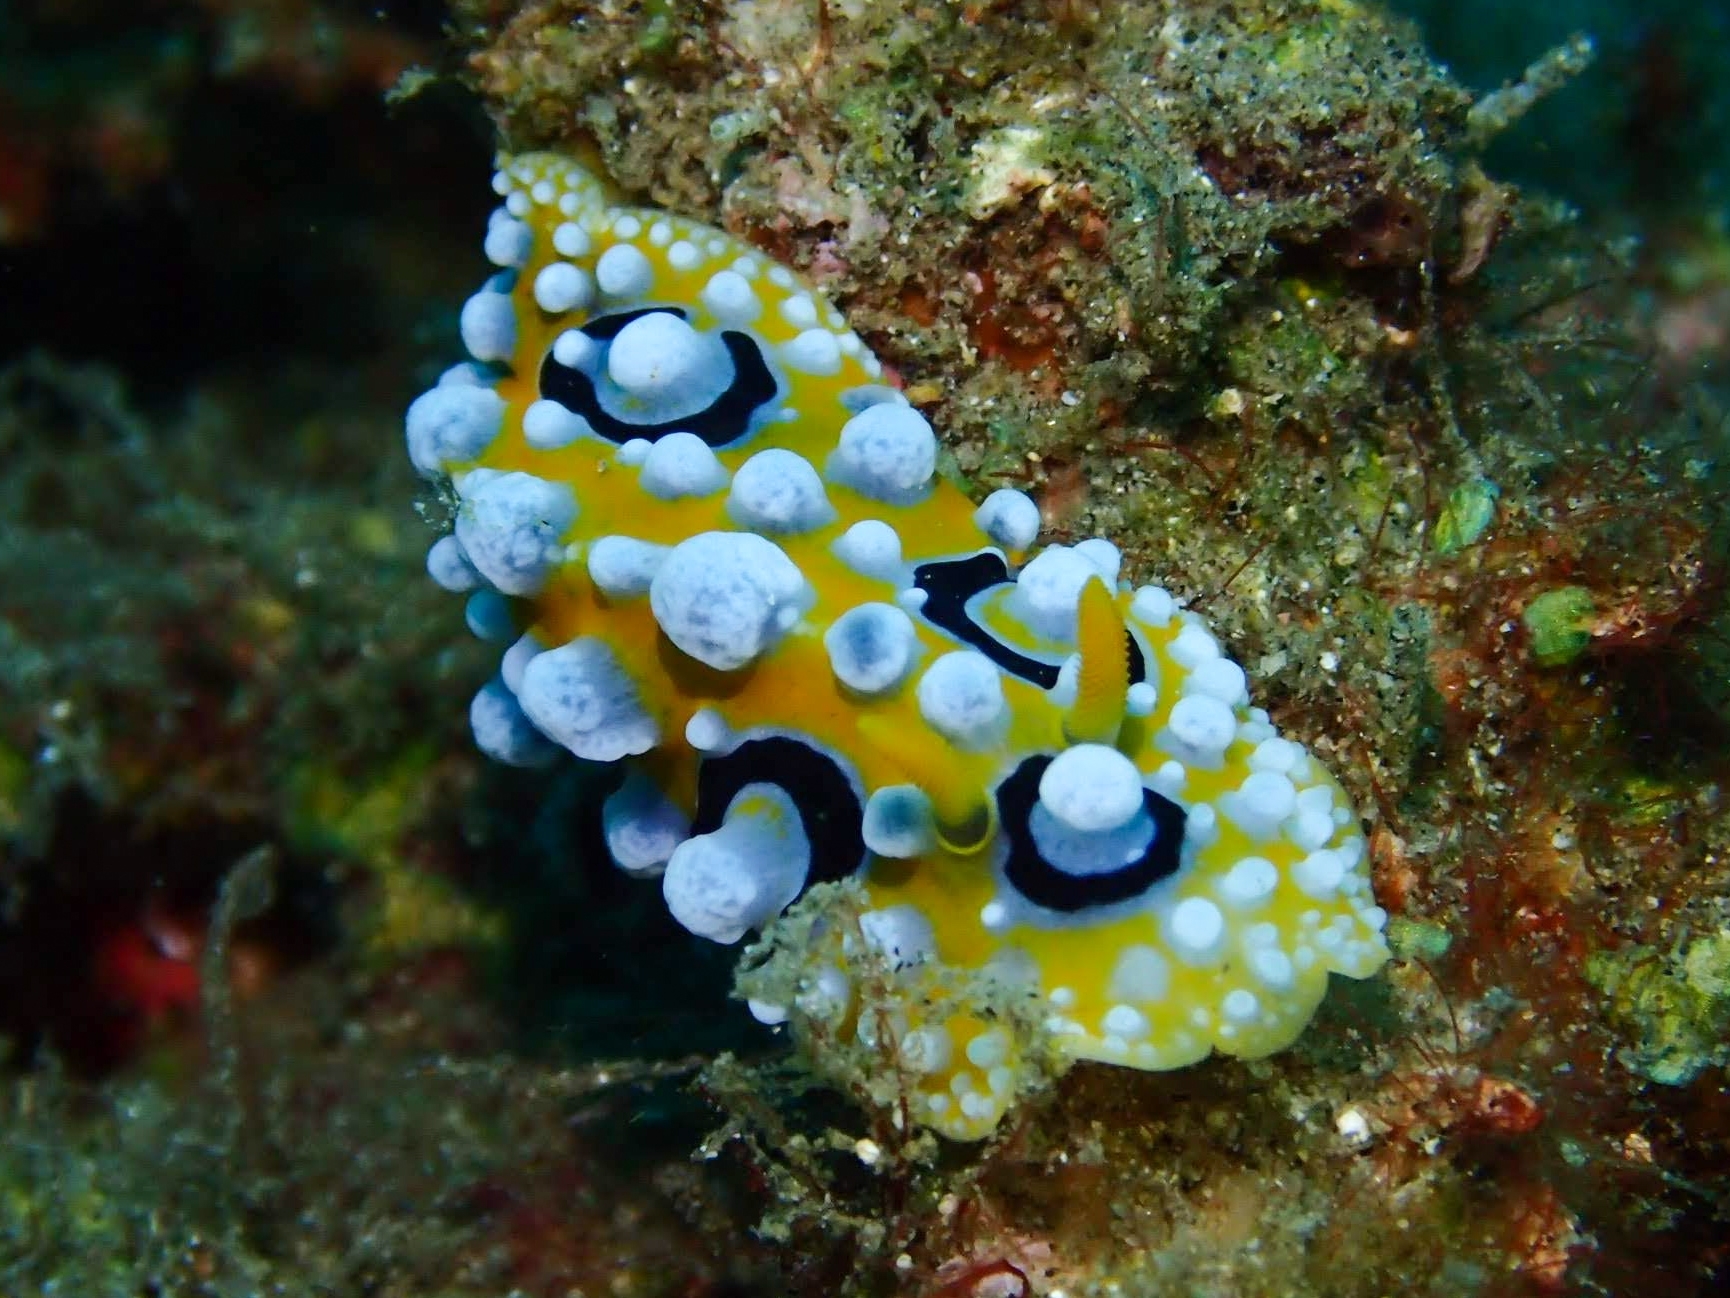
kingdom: Animalia
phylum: Mollusca
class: Gastropoda
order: Nudibranchia
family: Phyllidiidae
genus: Phyllidia
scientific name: Phyllidia ocellata
